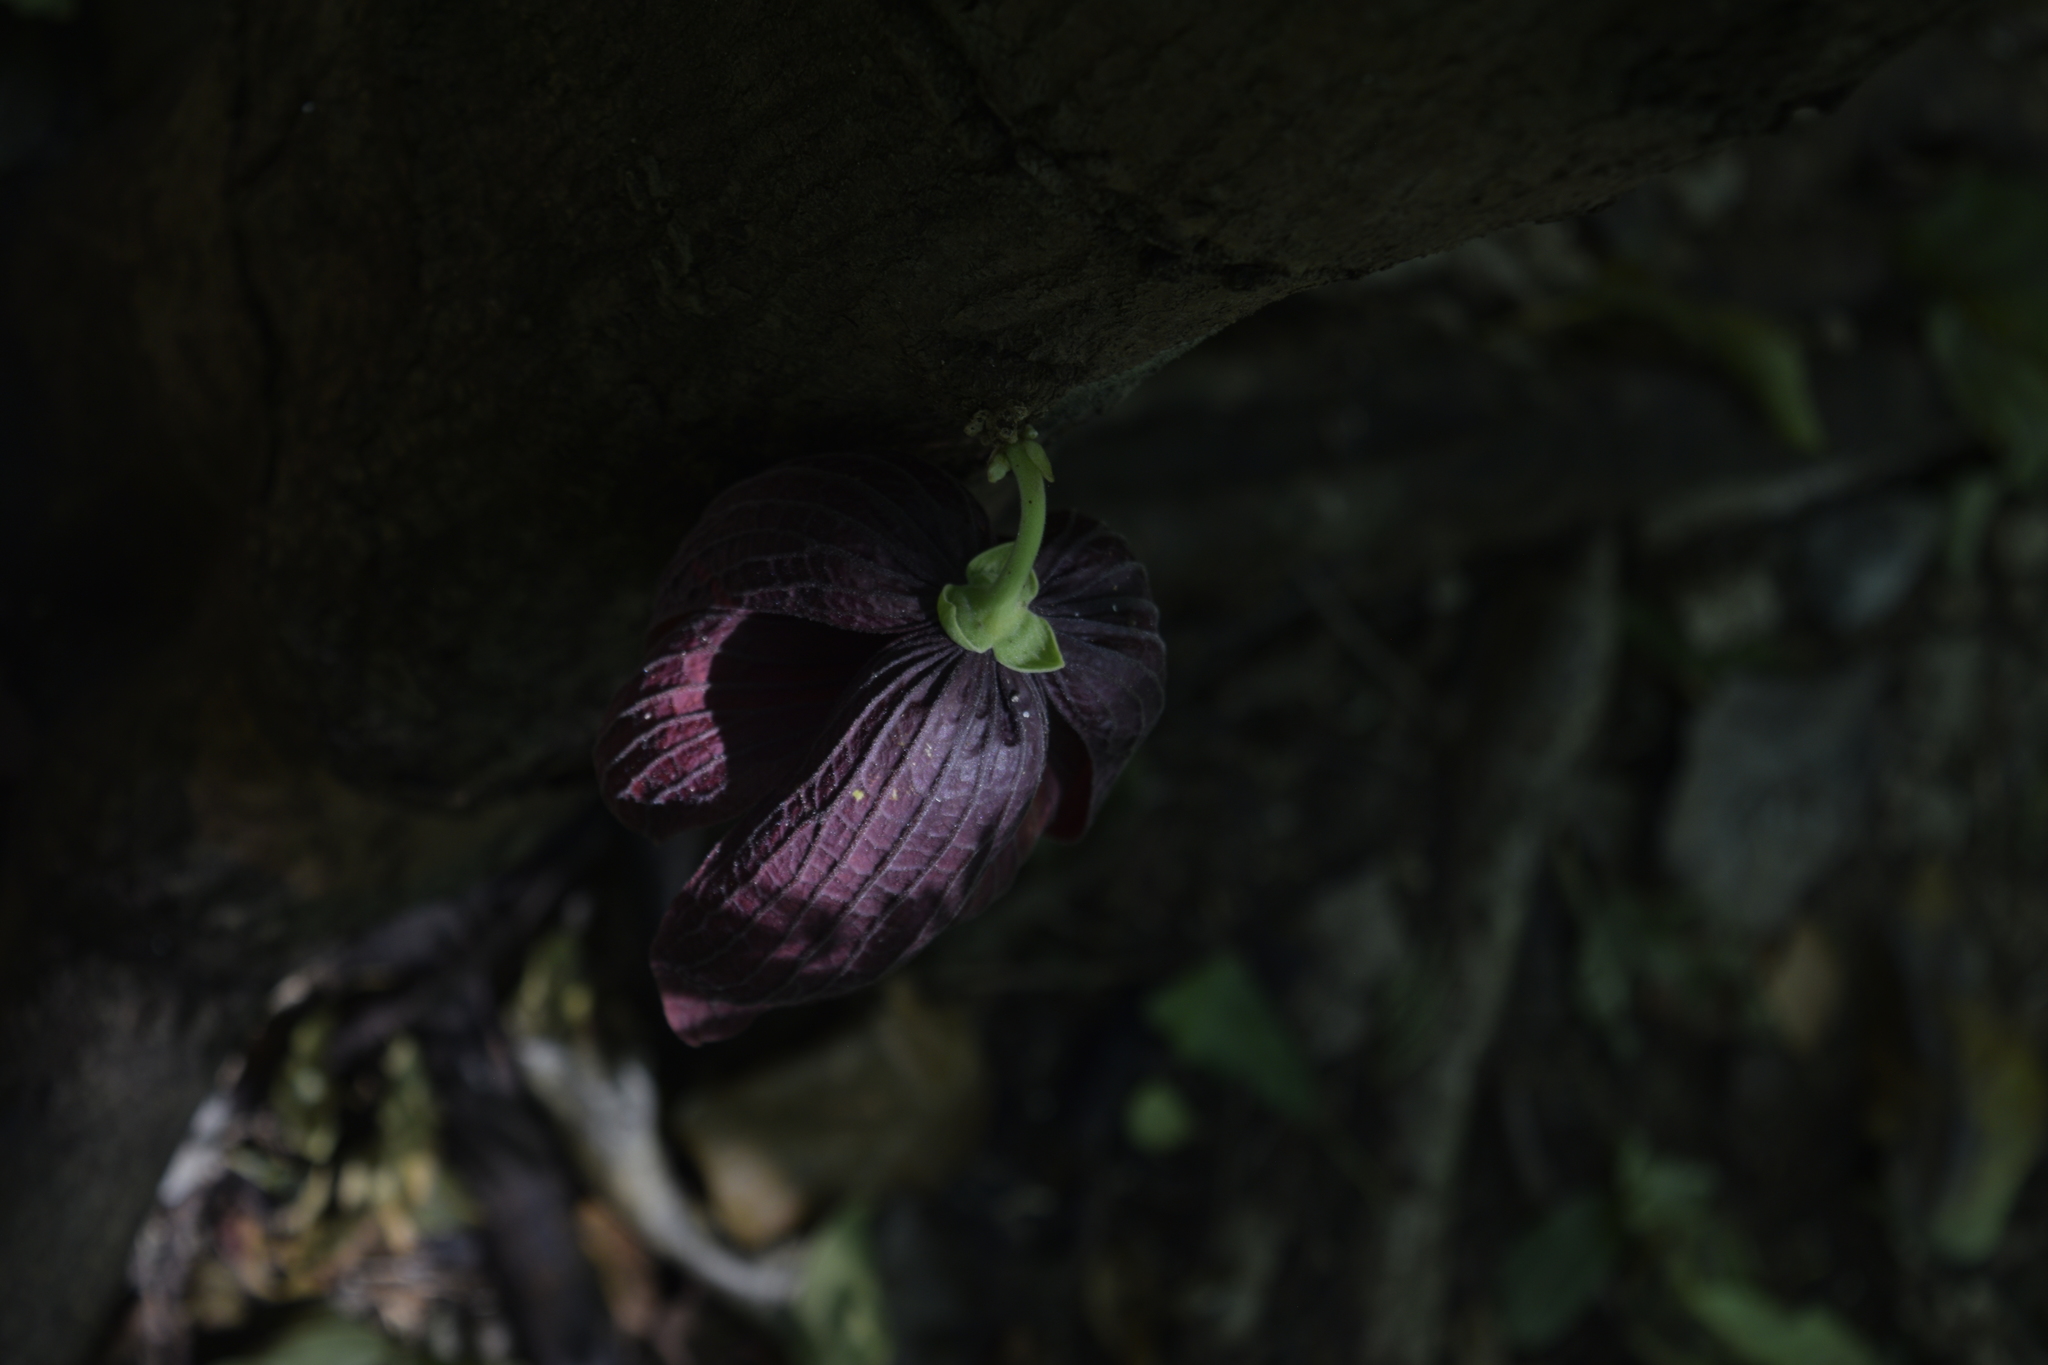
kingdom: Plantae
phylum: Tracheophyta
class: Magnoliopsida
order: Magnoliales
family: Annonaceae
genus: Sapranthus
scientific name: Sapranthus palanga
